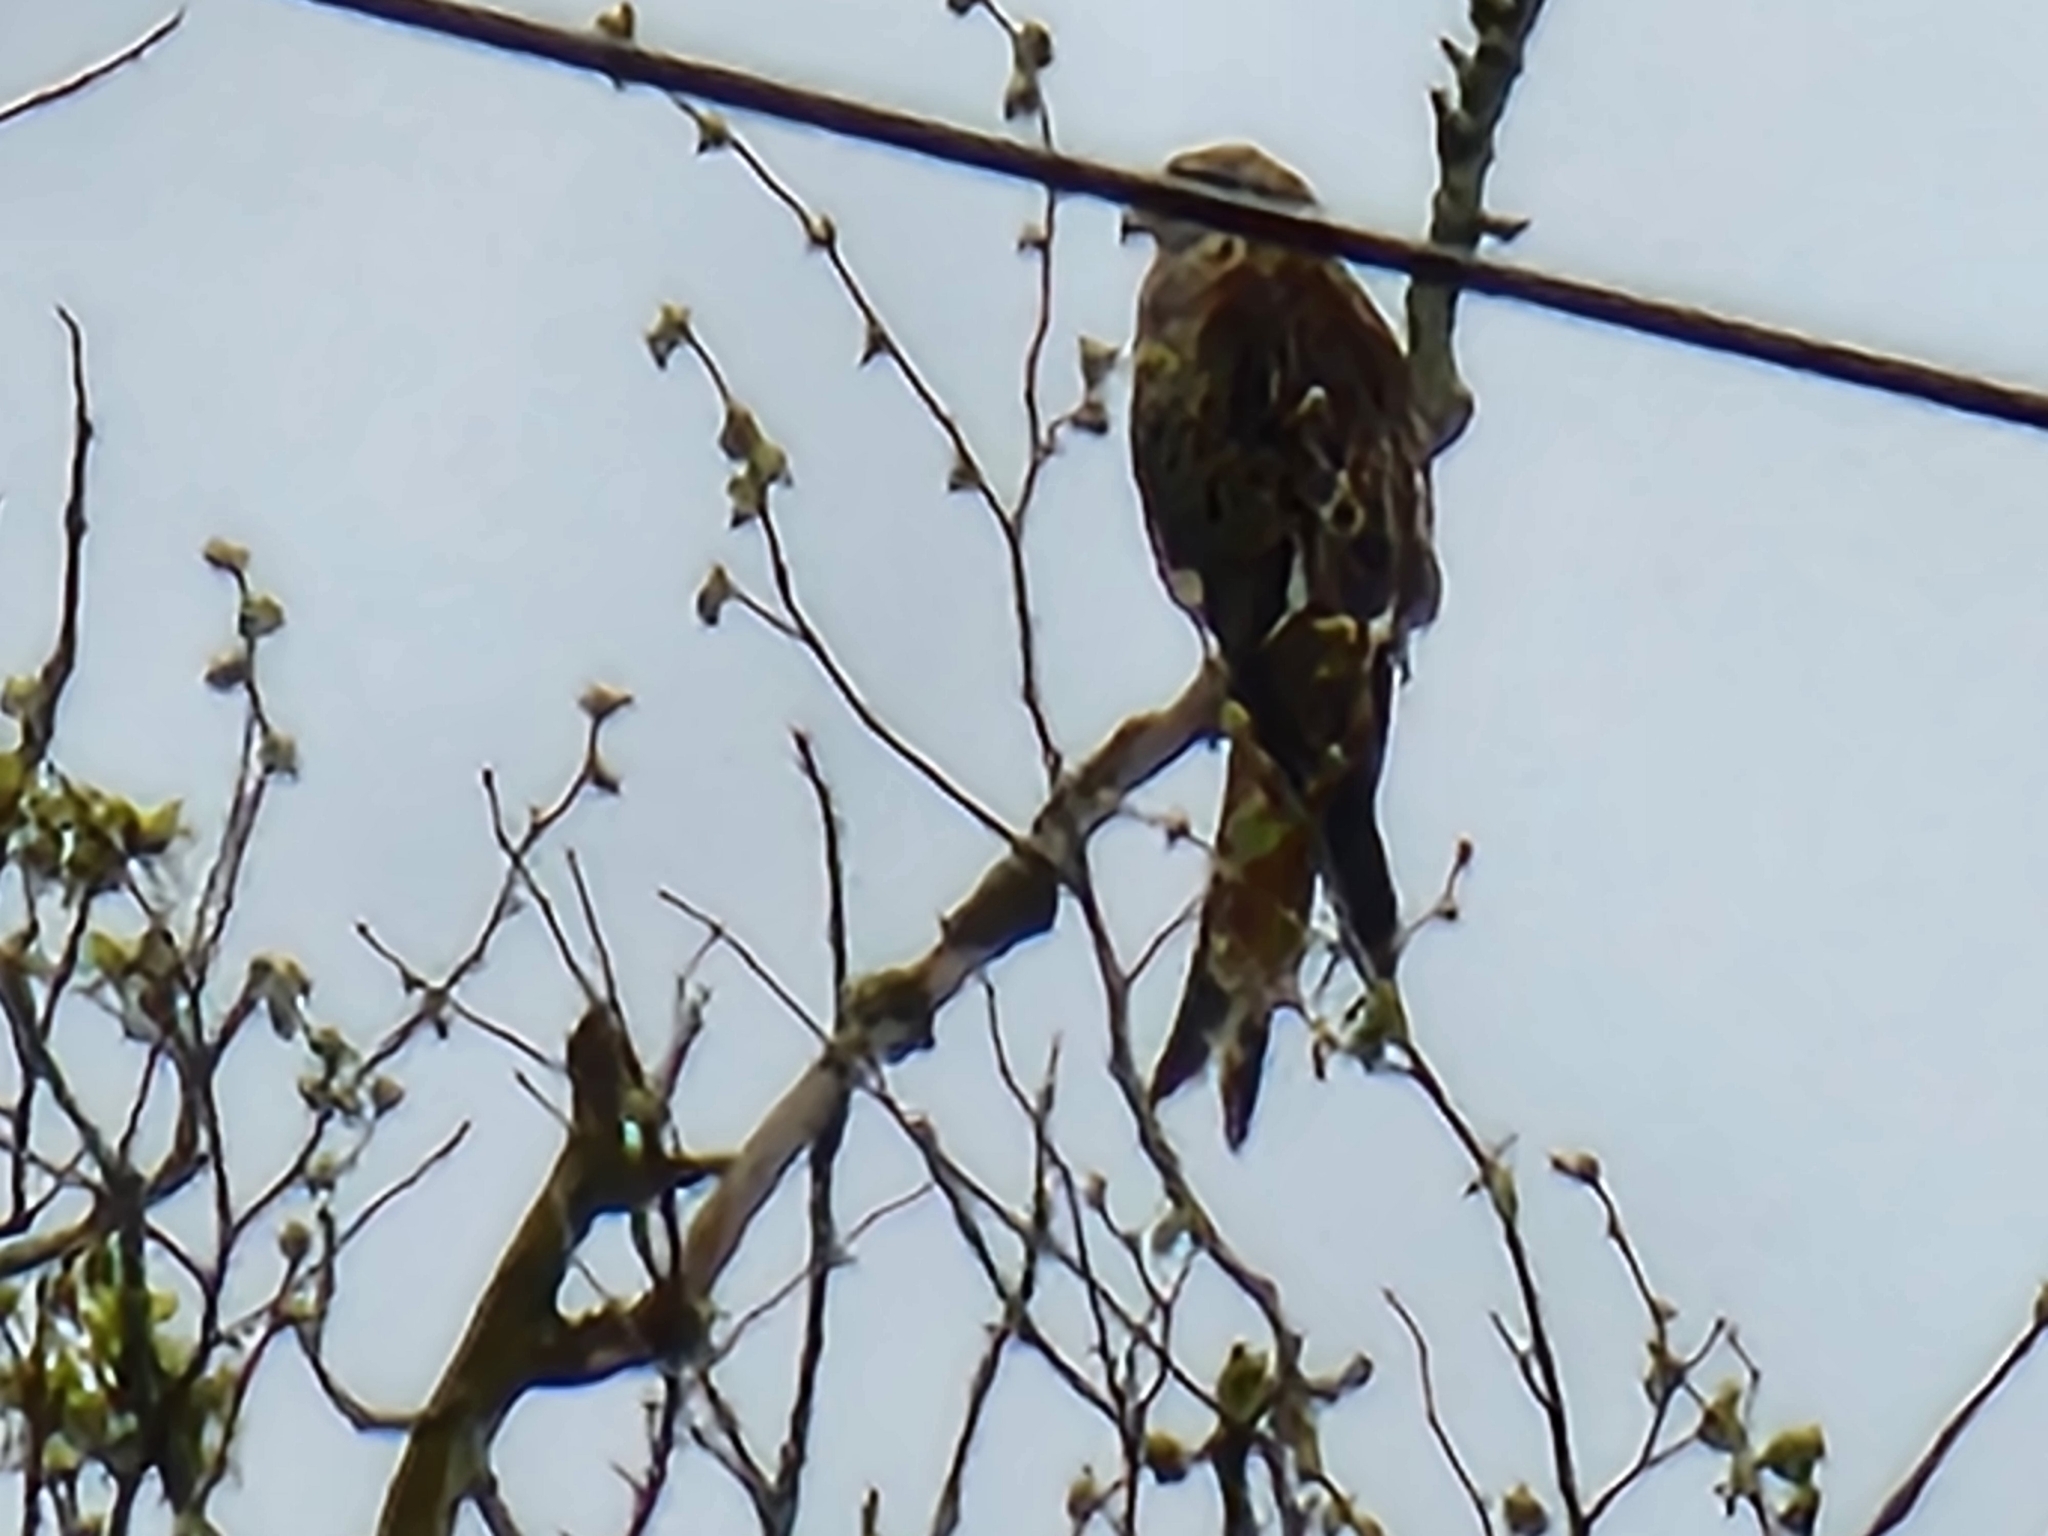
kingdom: Animalia
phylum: Chordata
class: Aves
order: Accipitriformes
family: Accipitridae
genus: Milvus
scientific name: Milvus milvus
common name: Red kite
